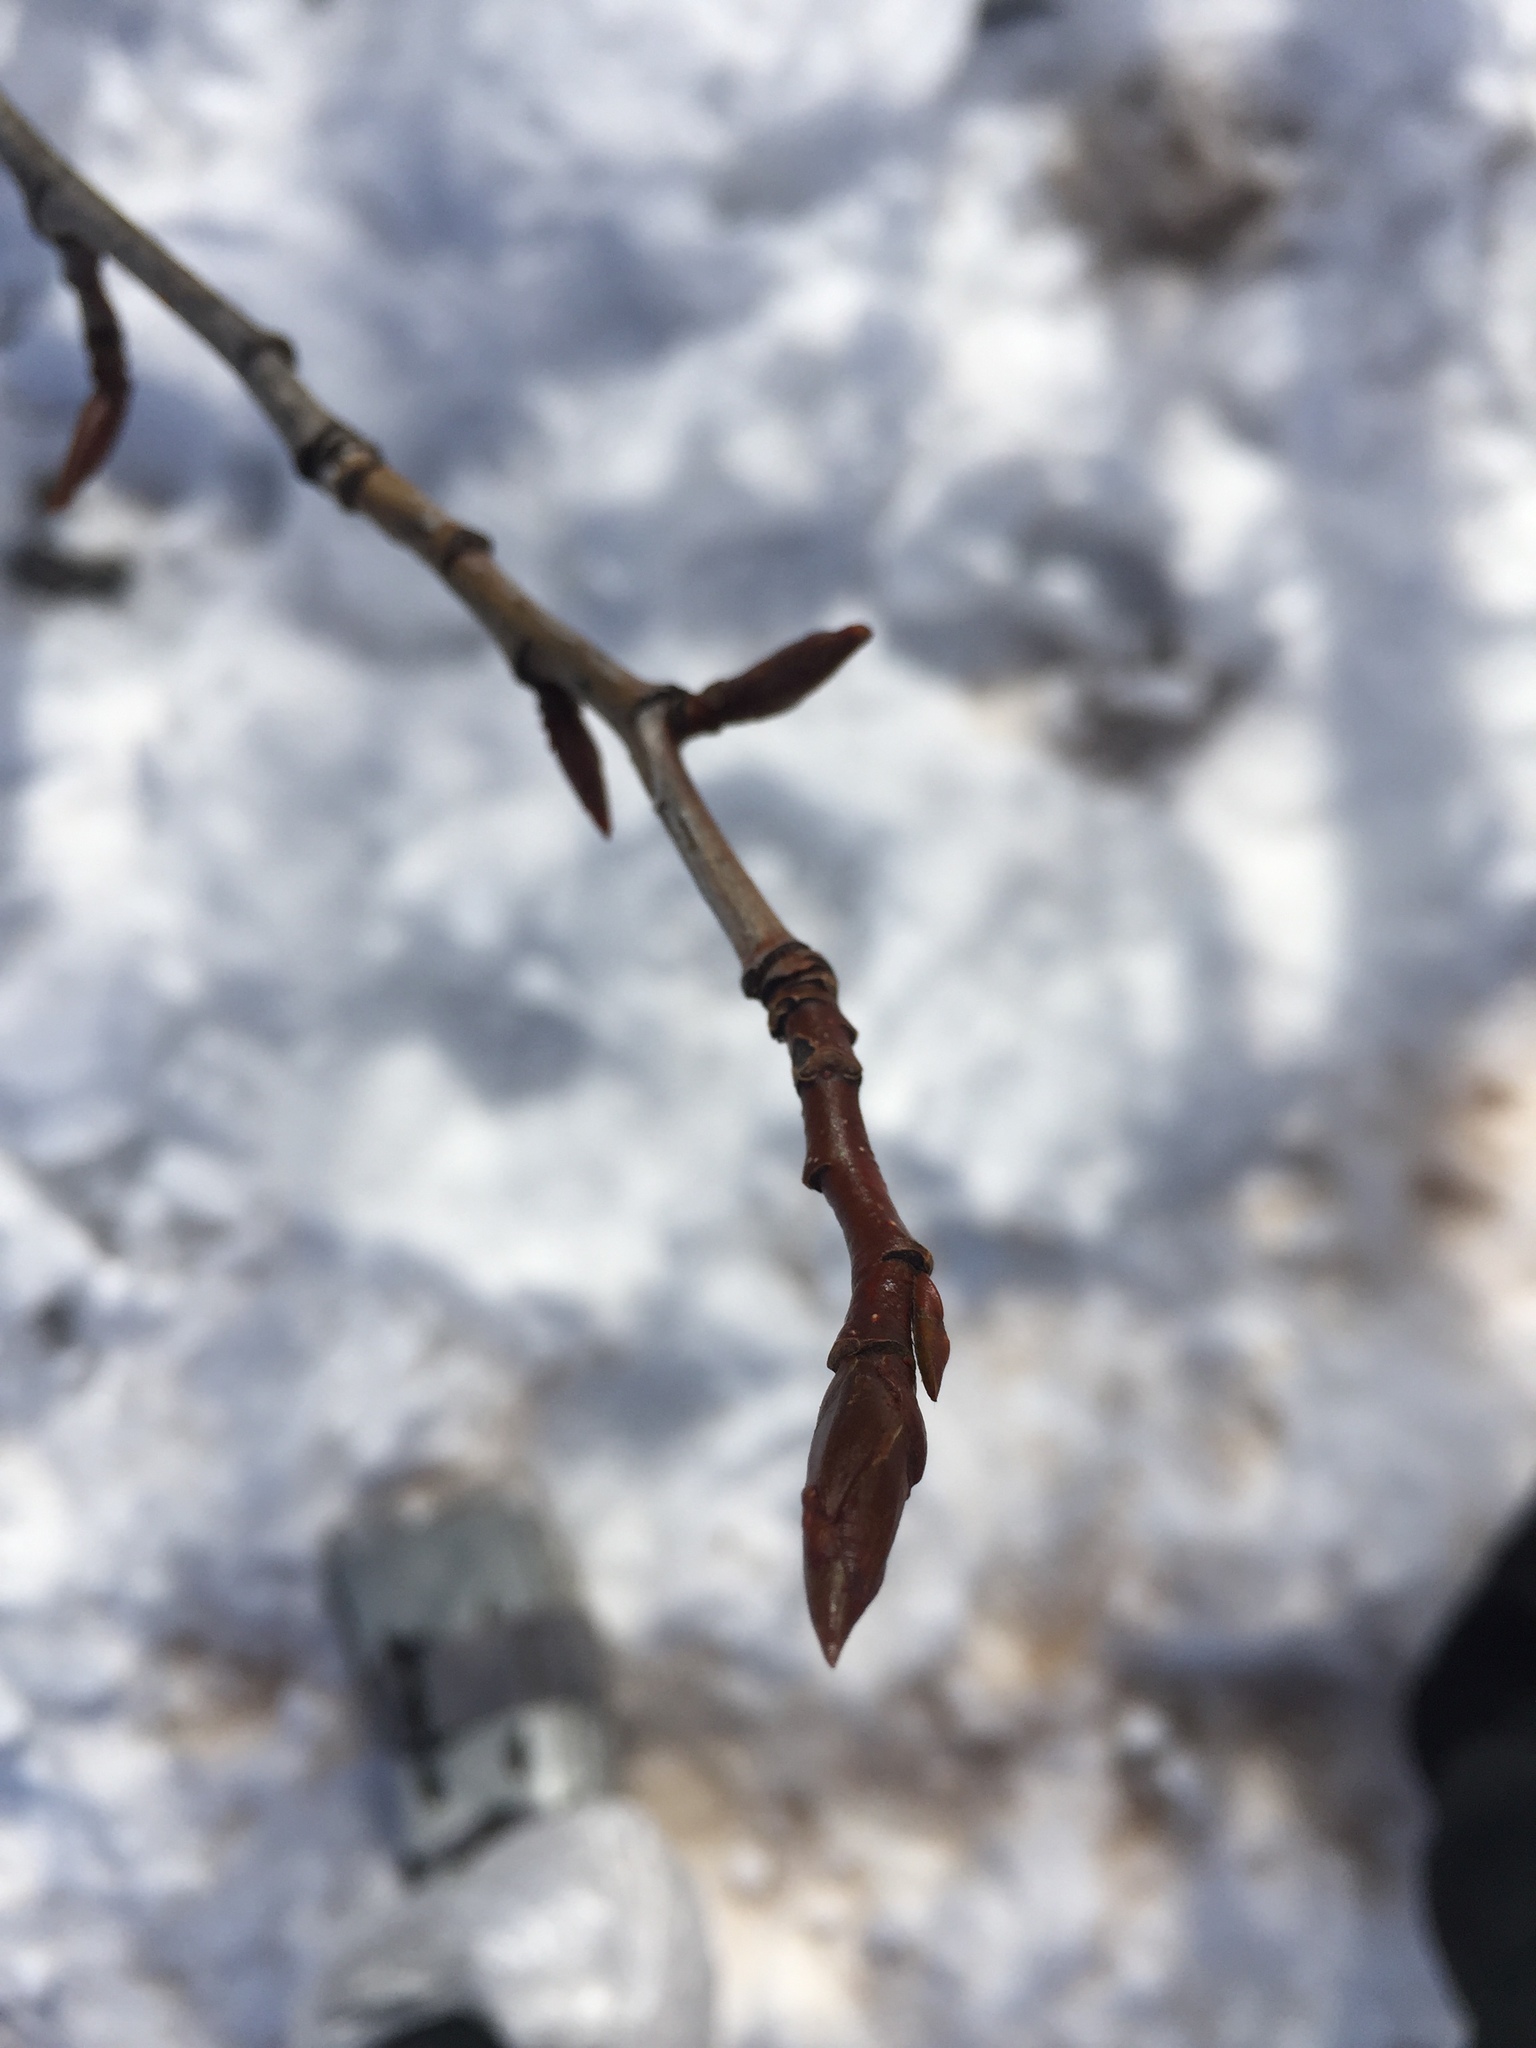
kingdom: Plantae
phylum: Tracheophyta
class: Magnoliopsida
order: Malpighiales
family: Salicaceae
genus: Populus
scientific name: Populus balsamifera
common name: Balsam poplar
